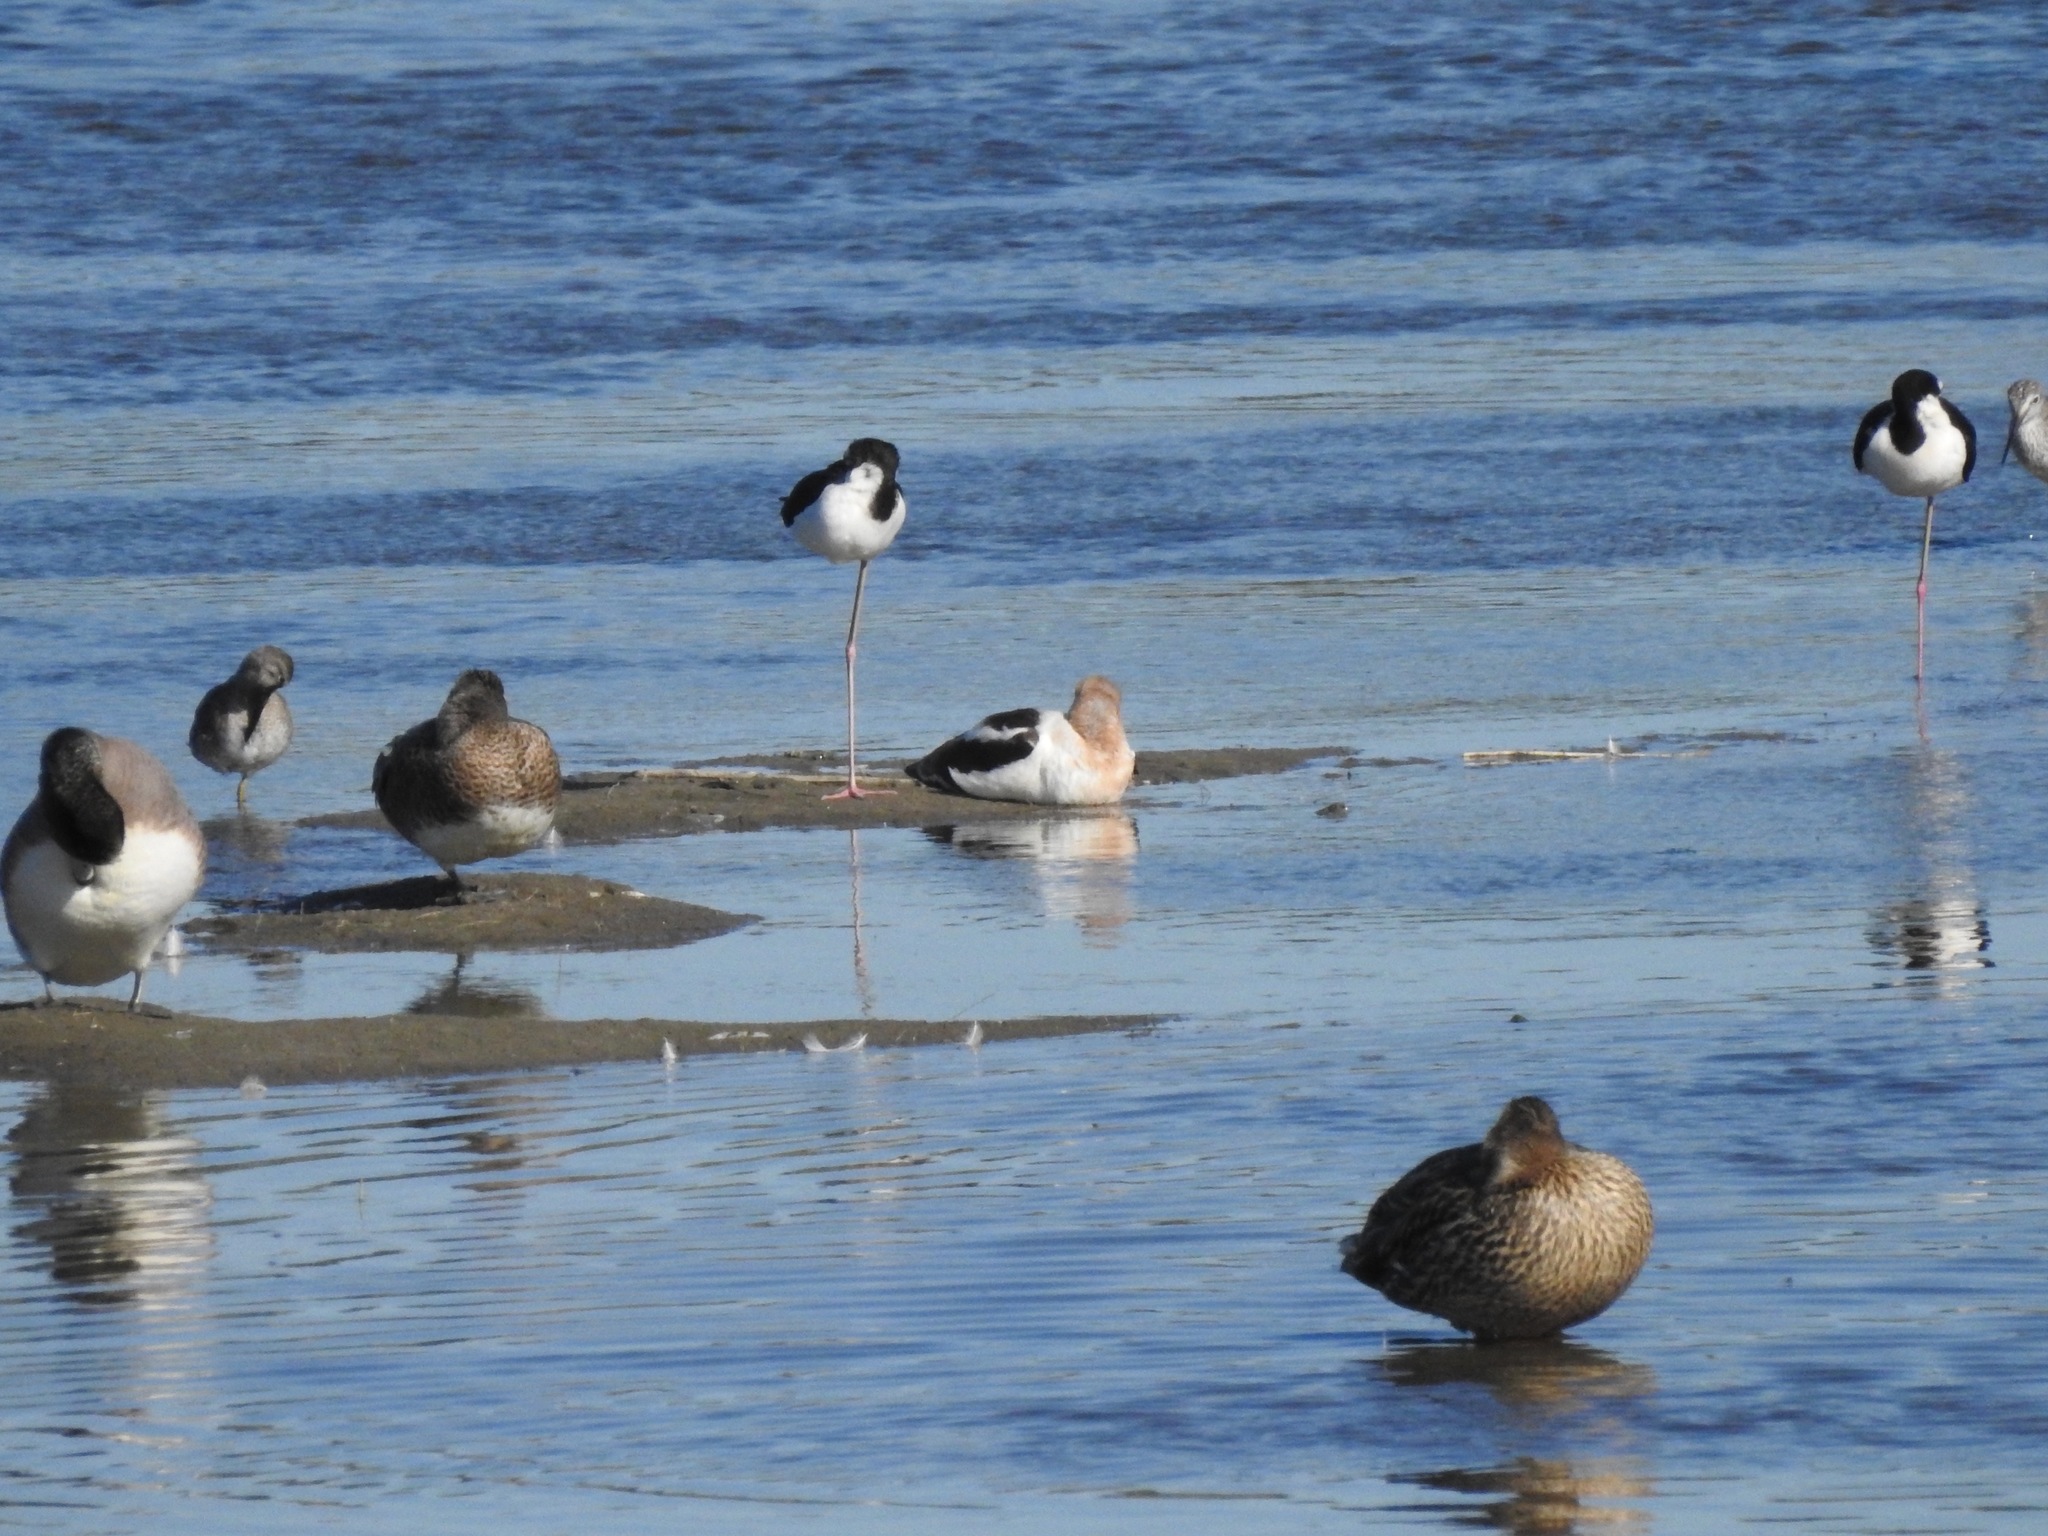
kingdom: Animalia
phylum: Chordata
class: Aves
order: Charadriiformes
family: Recurvirostridae
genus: Recurvirostra
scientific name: Recurvirostra americana
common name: American avocet
